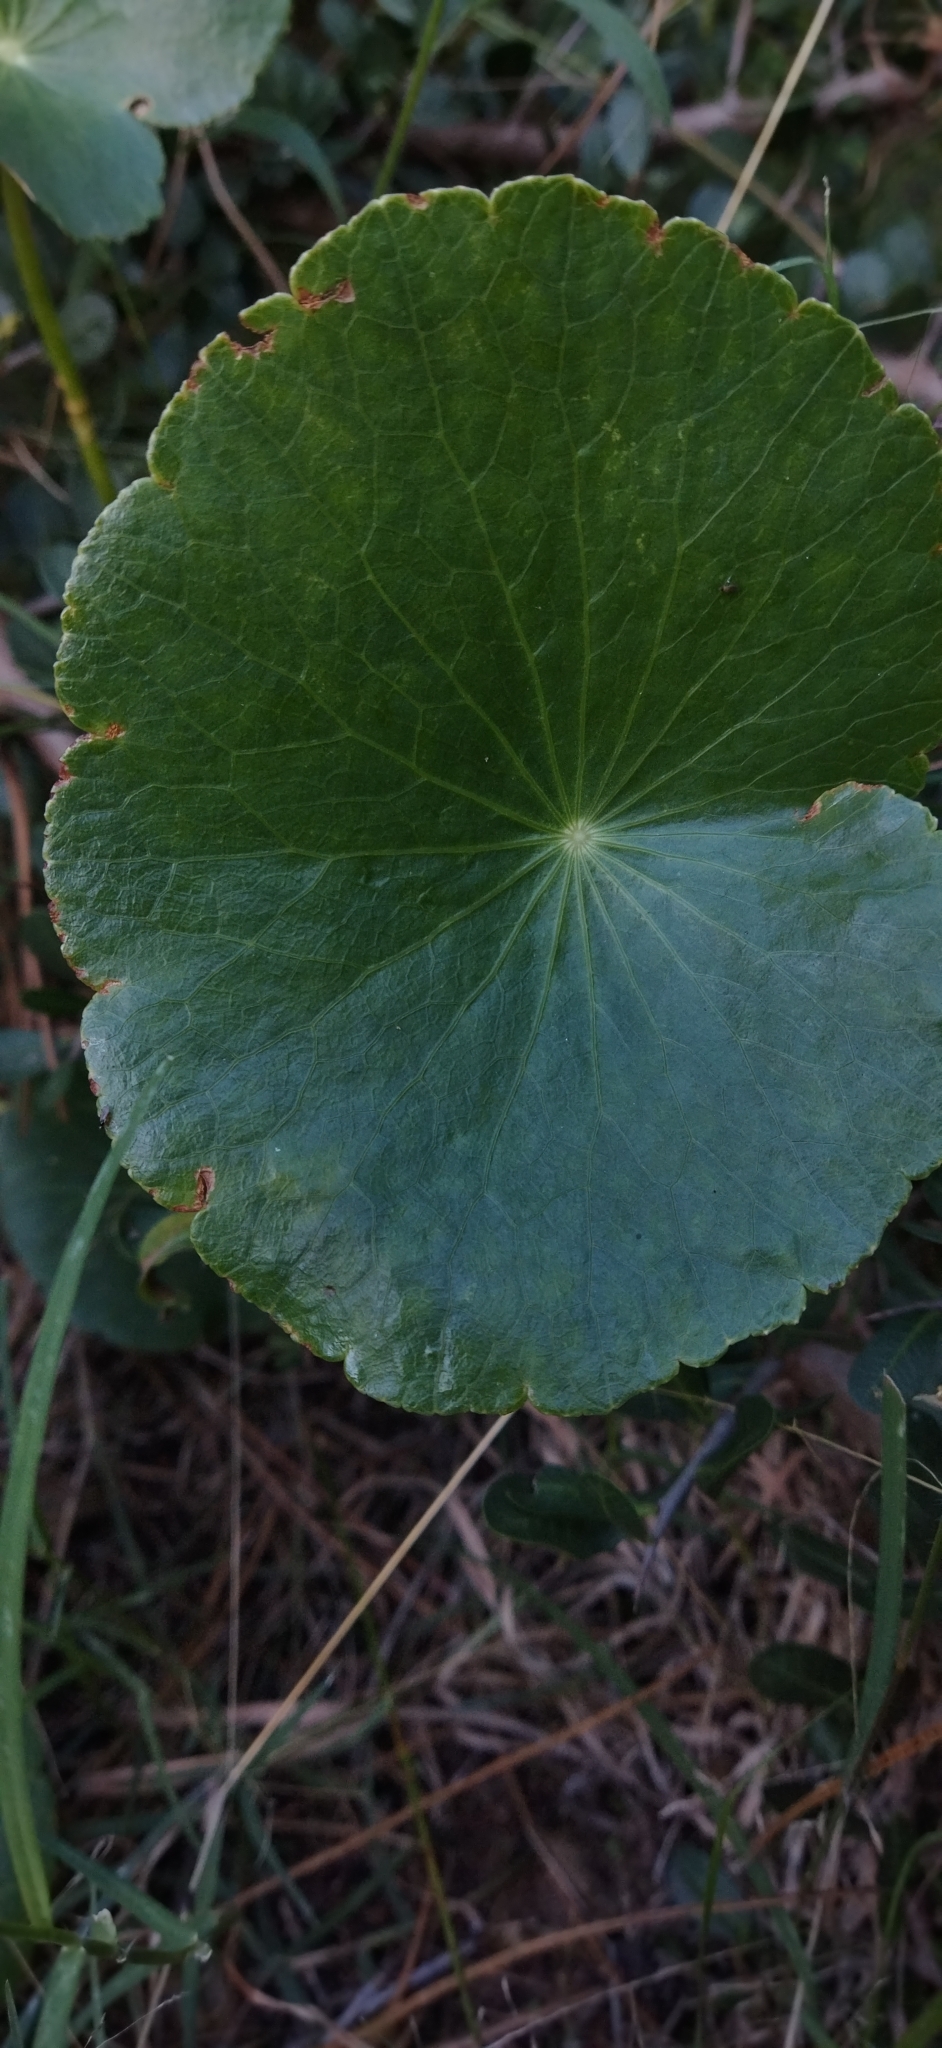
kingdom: Plantae
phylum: Tracheophyta
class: Magnoliopsida
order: Apiales
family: Araliaceae
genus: Hydrocotyle
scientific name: Hydrocotyle bonariensis
